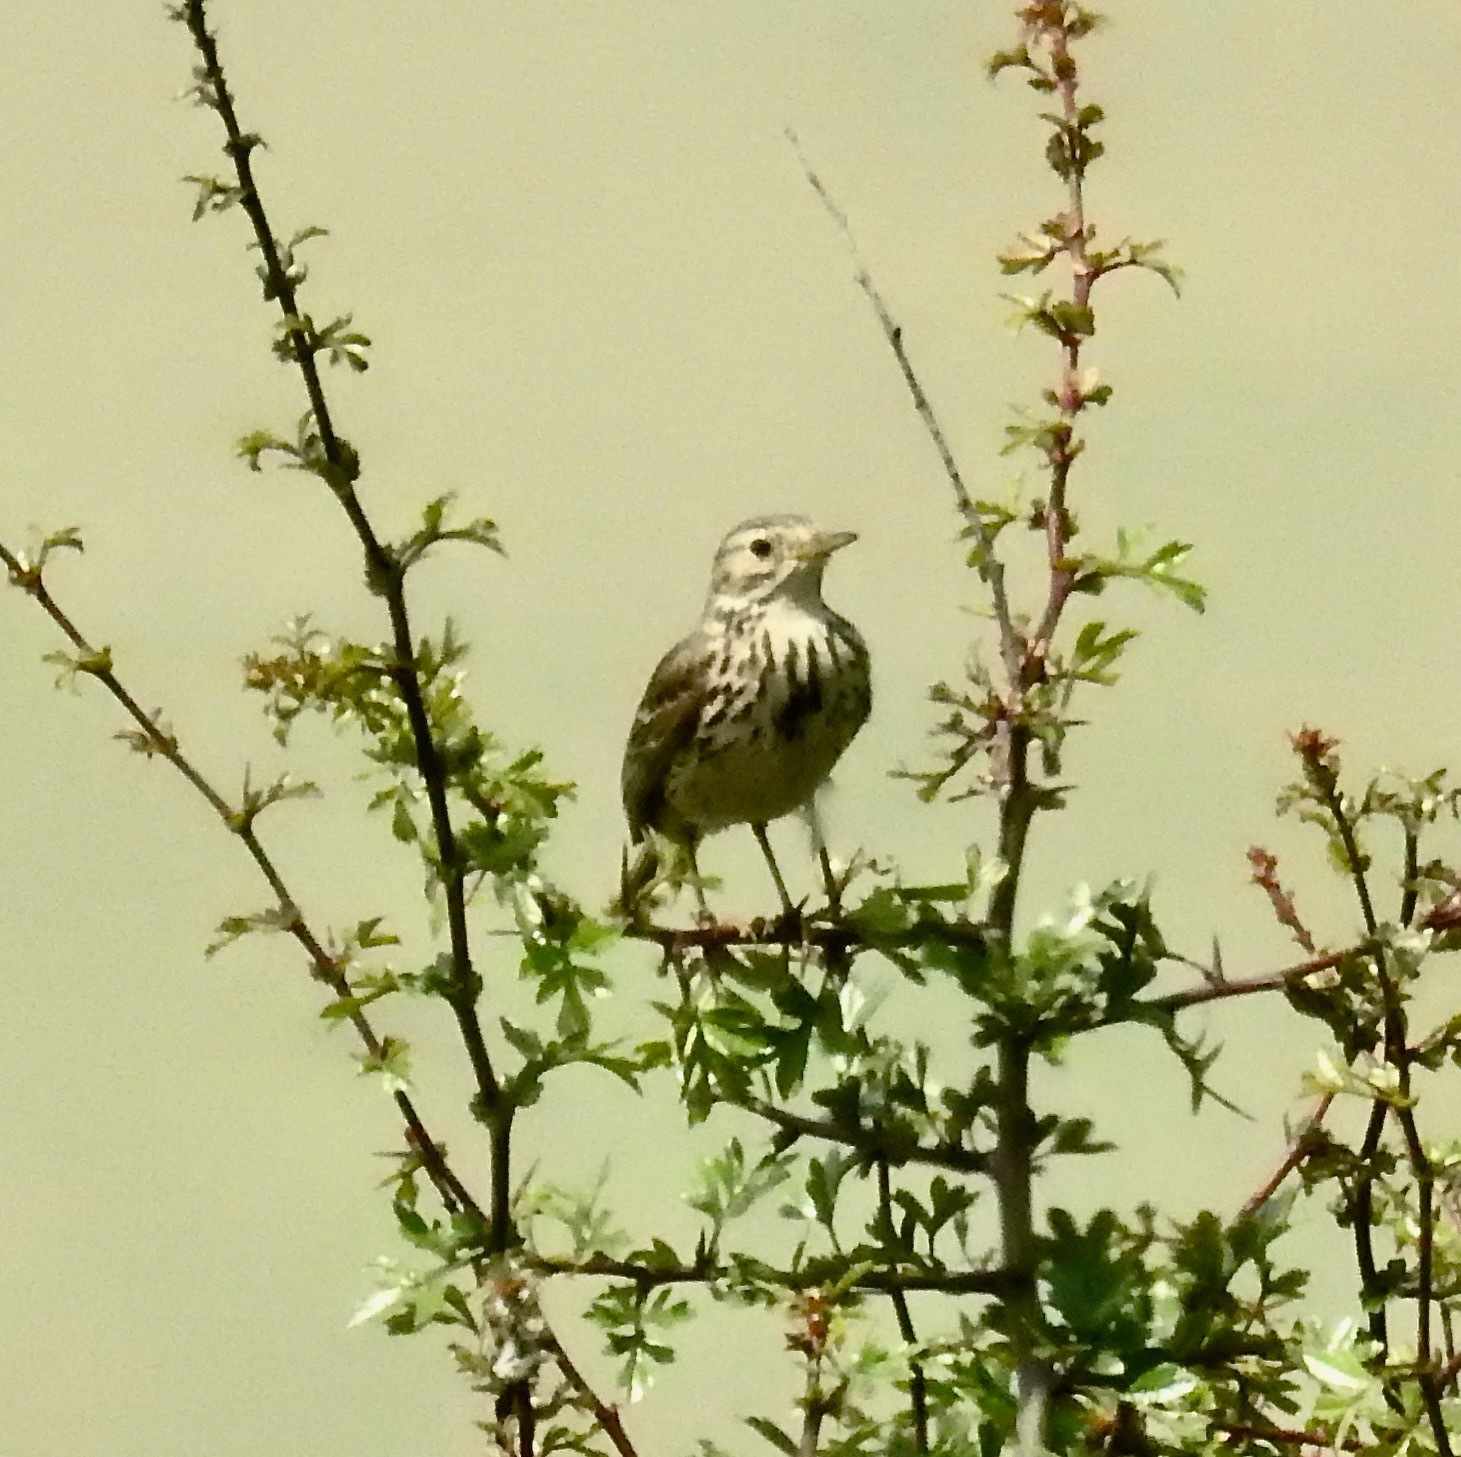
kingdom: Animalia
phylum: Chordata
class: Aves
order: Passeriformes
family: Motacillidae
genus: Anthus
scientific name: Anthus pratensis
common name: Meadow pipit
